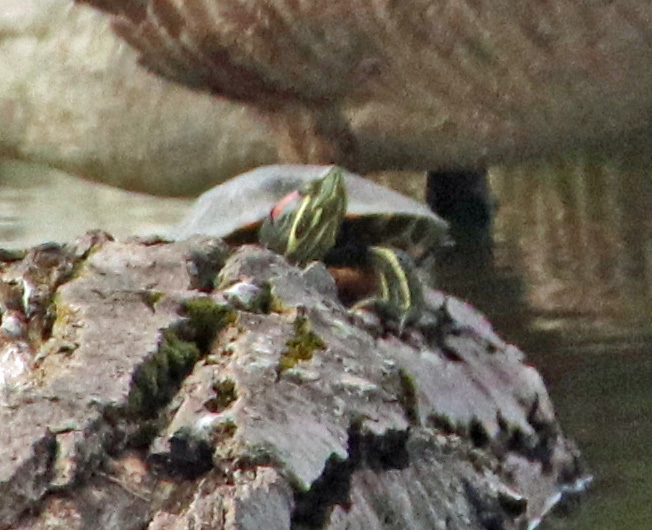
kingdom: Animalia
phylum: Chordata
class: Testudines
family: Emydidae
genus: Trachemys
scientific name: Trachemys scripta
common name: Slider
